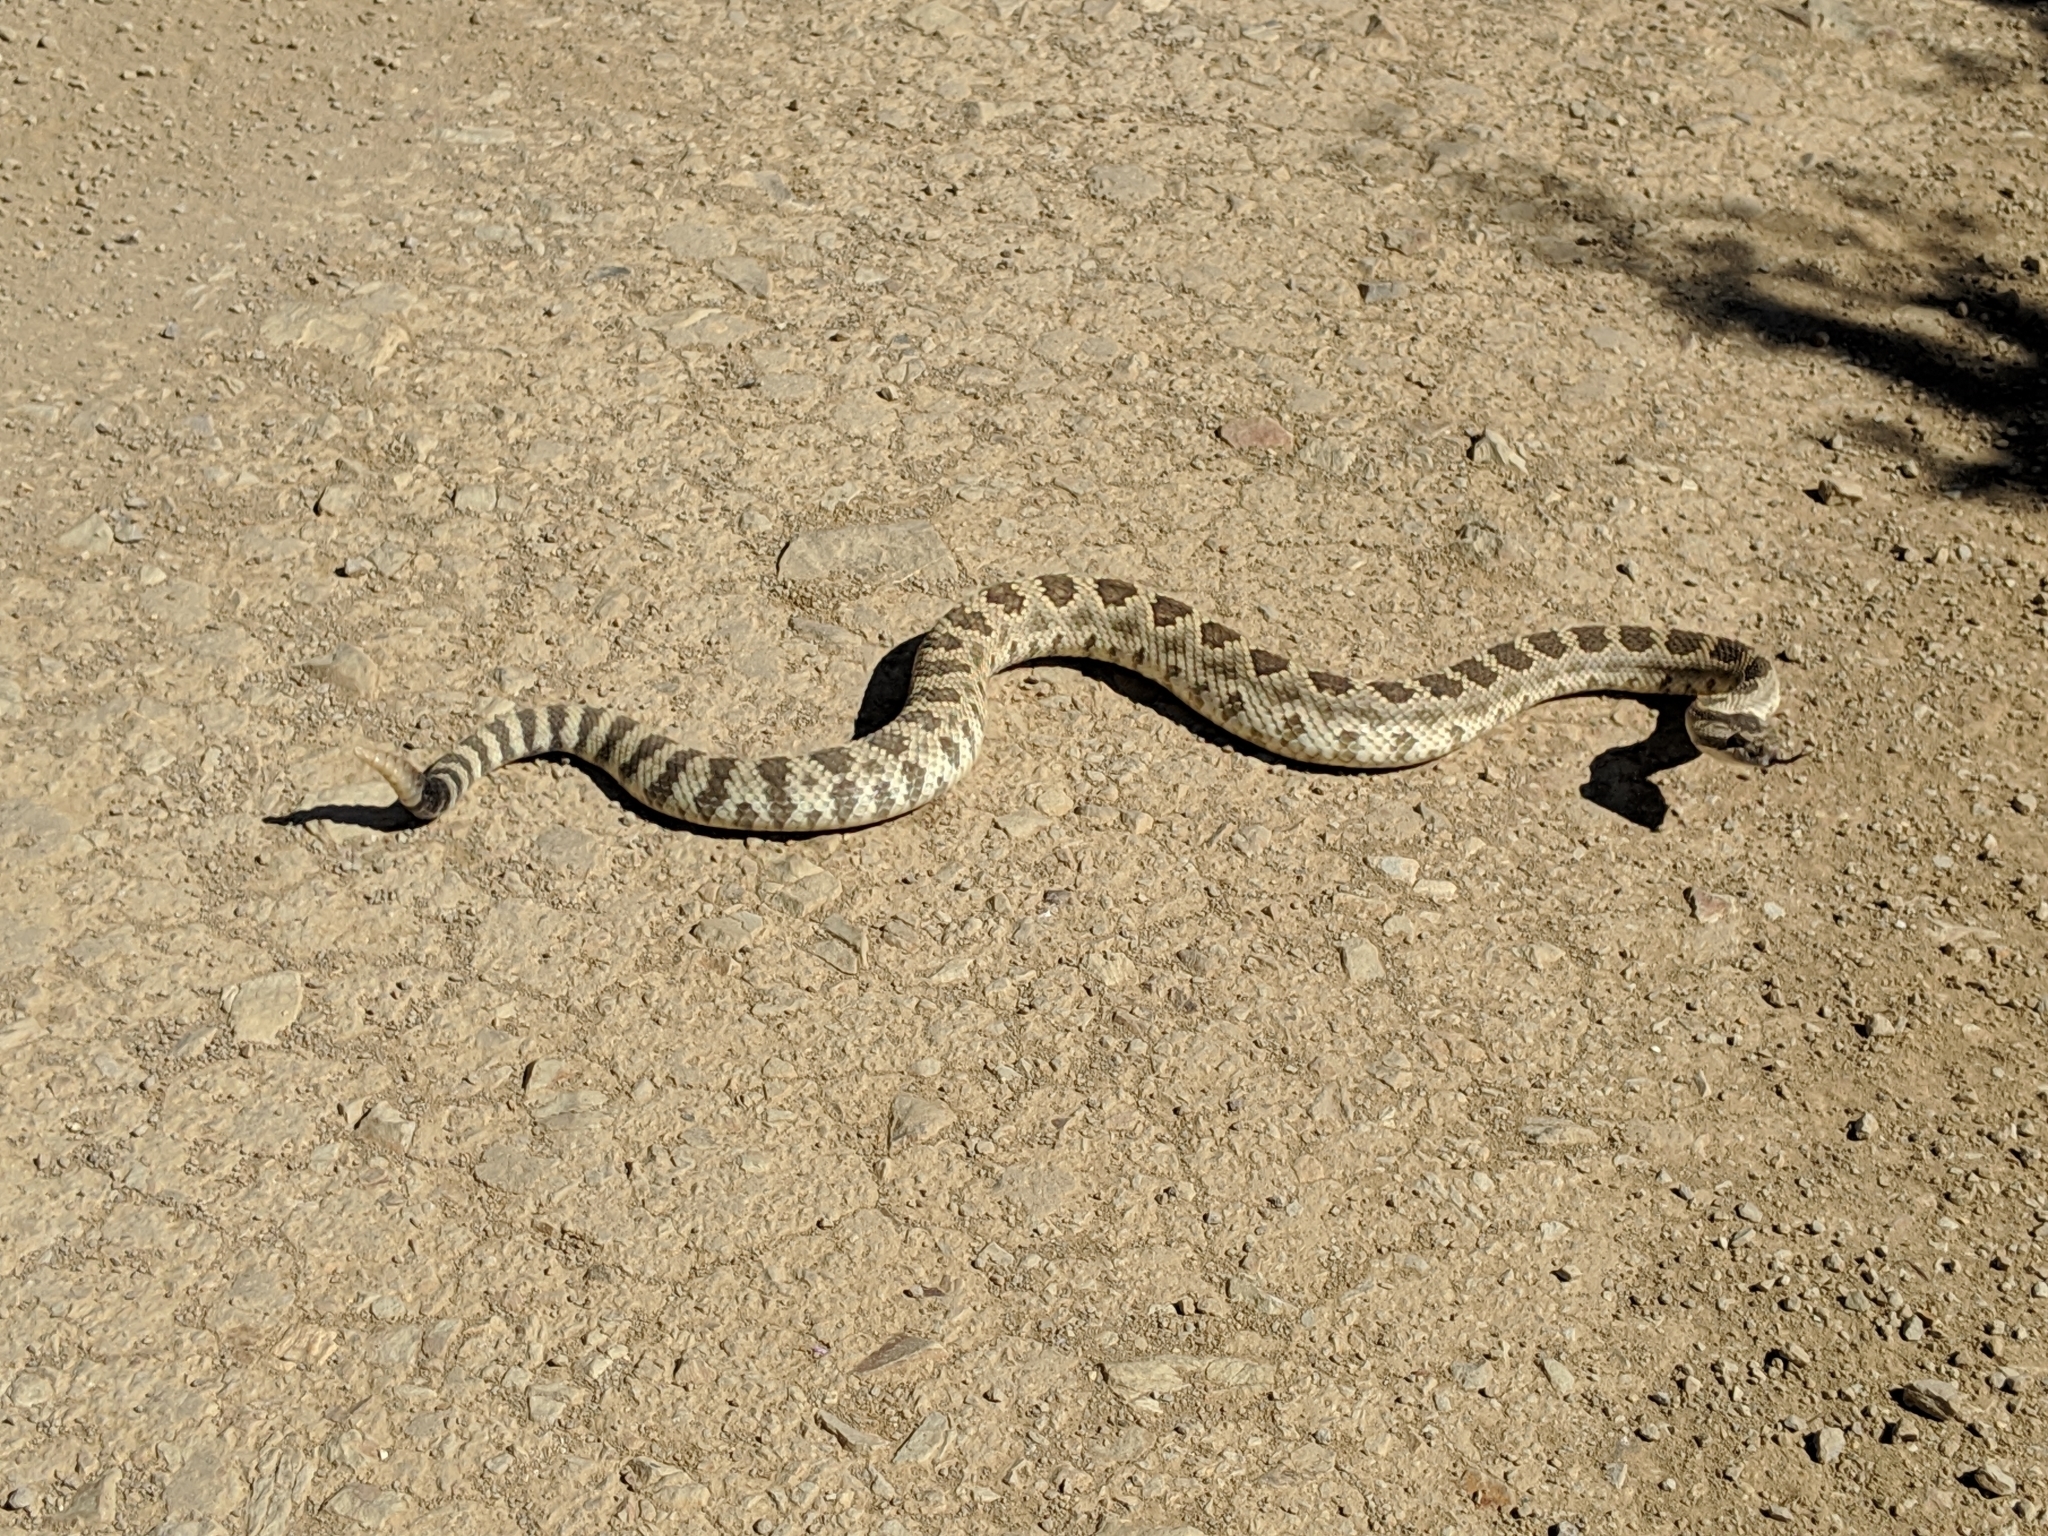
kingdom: Animalia
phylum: Chordata
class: Squamata
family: Viperidae
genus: Crotalus
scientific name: Crotalus oreganus
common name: Abyssus
